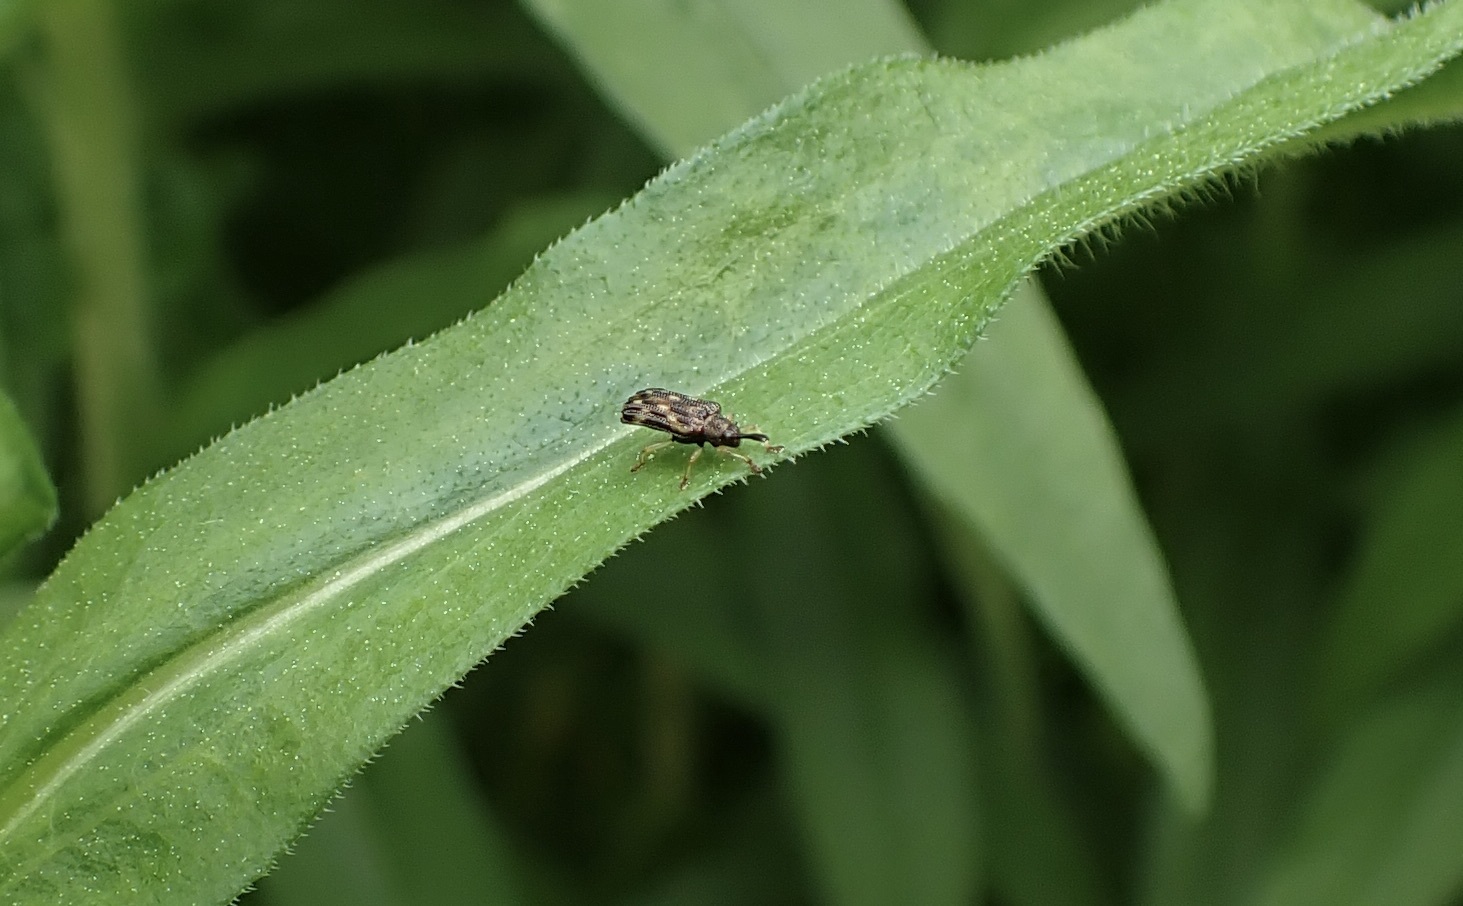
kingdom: Animalia
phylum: Arthropoda
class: Insecta
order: Coleoptera
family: Chrysomelidae
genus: Sumitrosis
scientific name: Sumitrosis inaequalis
